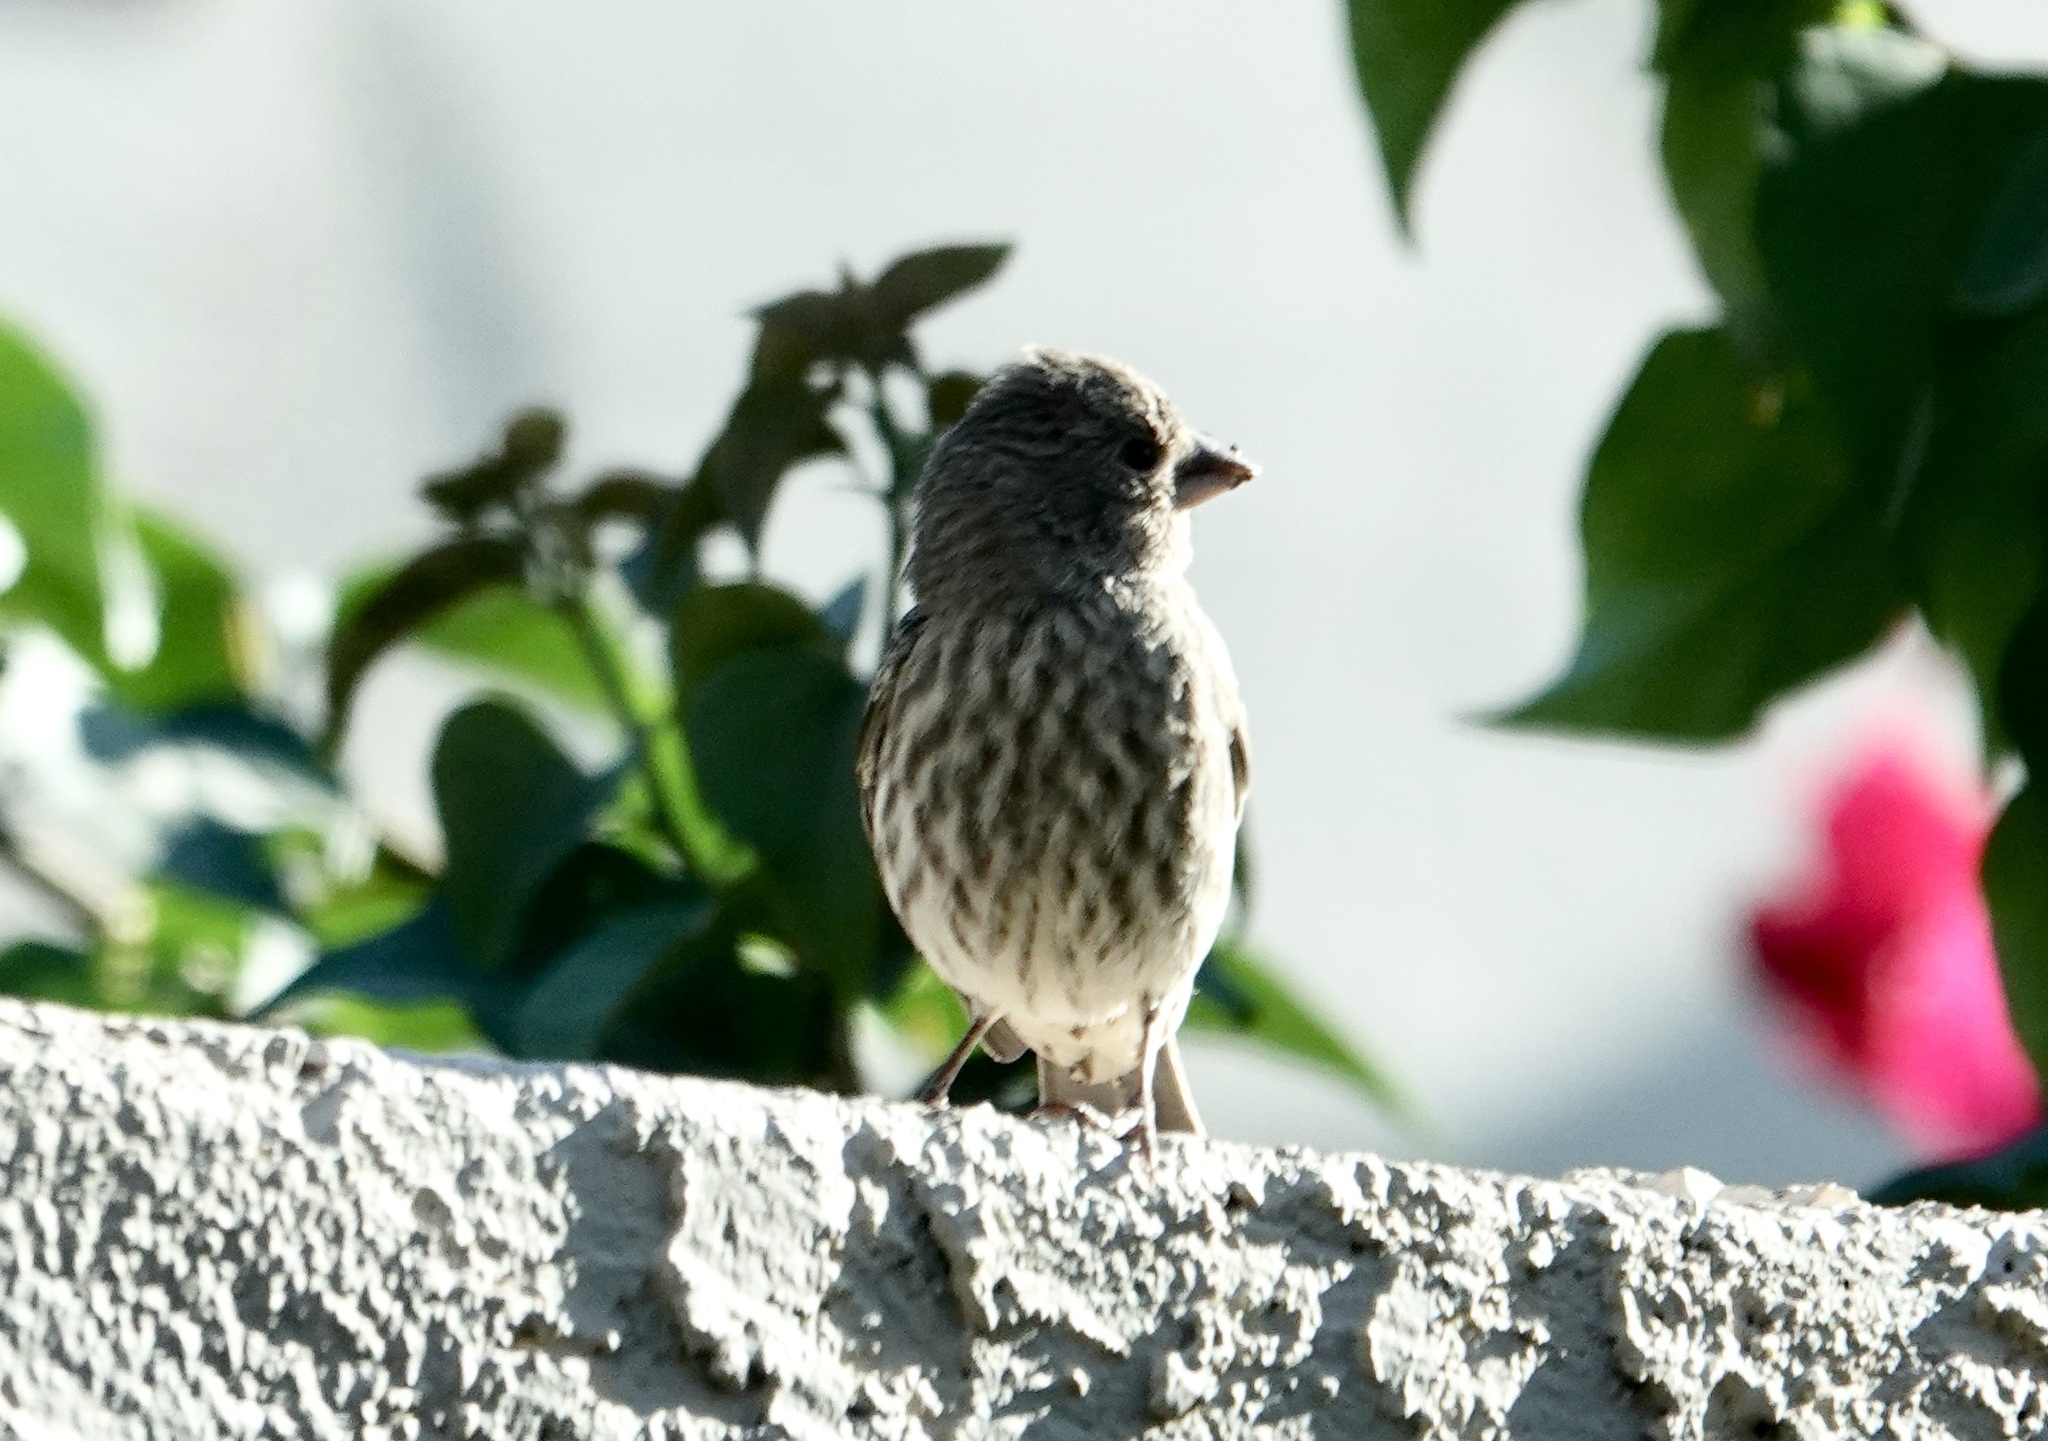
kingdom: Animalia
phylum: Chordata
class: Aves
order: Passeriformes
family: Fringillidae
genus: Haemorhous
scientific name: Haemorhous mexicanus
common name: House finch
